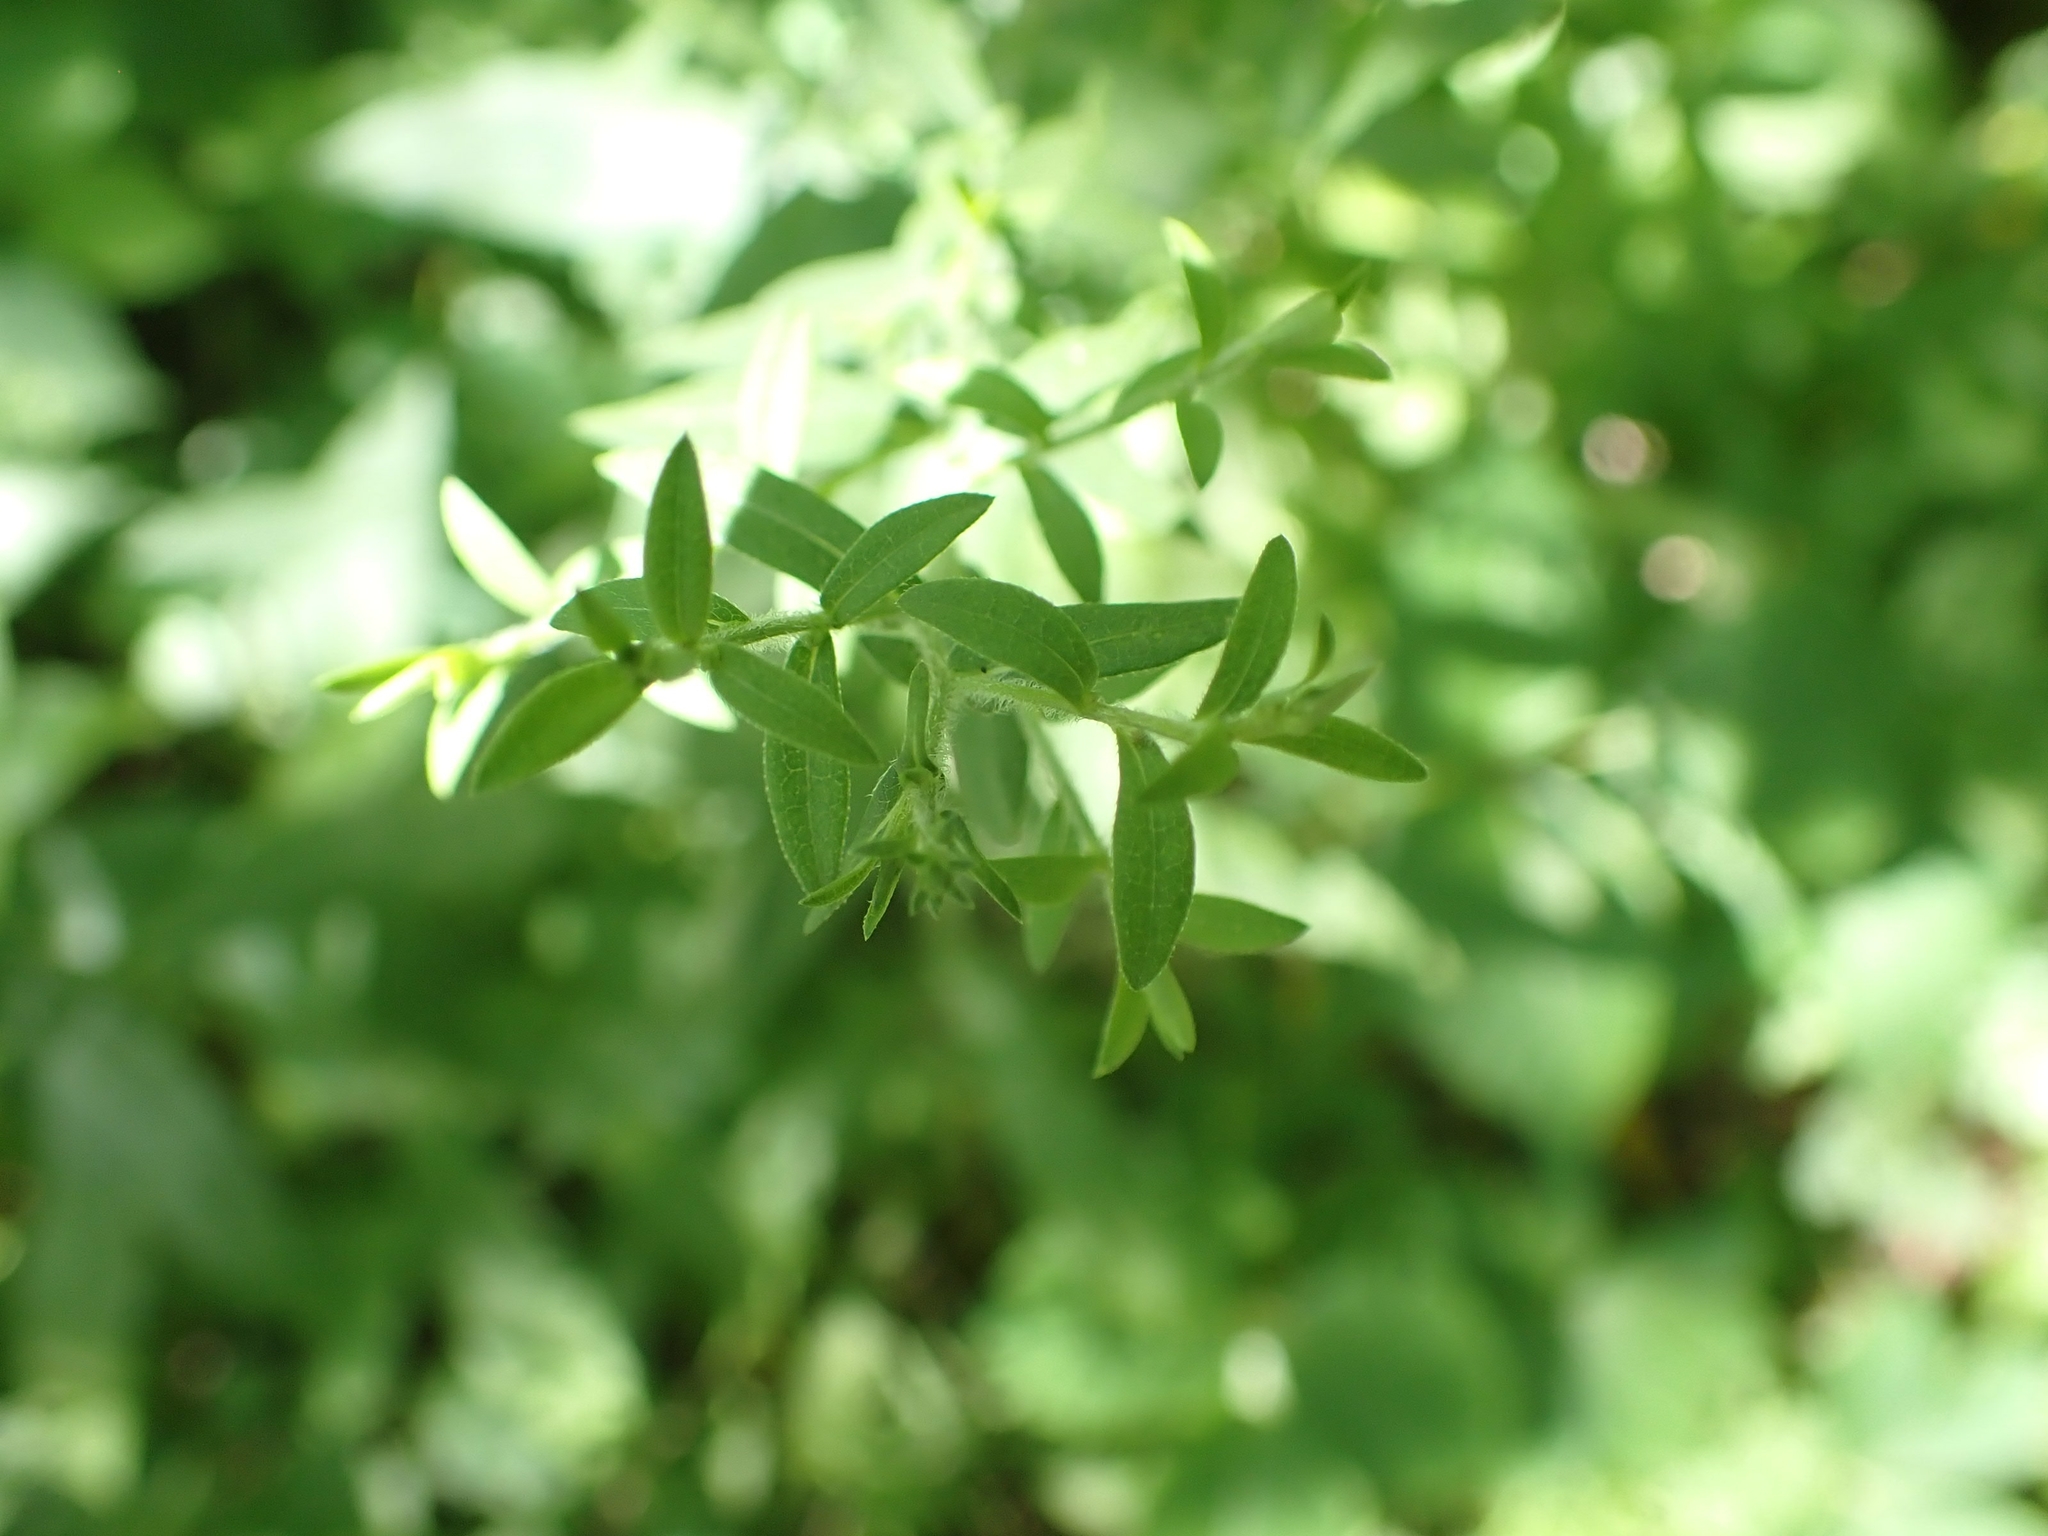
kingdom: Plantae
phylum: Tracheophyta
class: Magnoliopsida
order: Asterales
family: Asteraceae
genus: Symphyotrichum
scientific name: Symphyotrichum lateriflorum
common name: Calico aster
